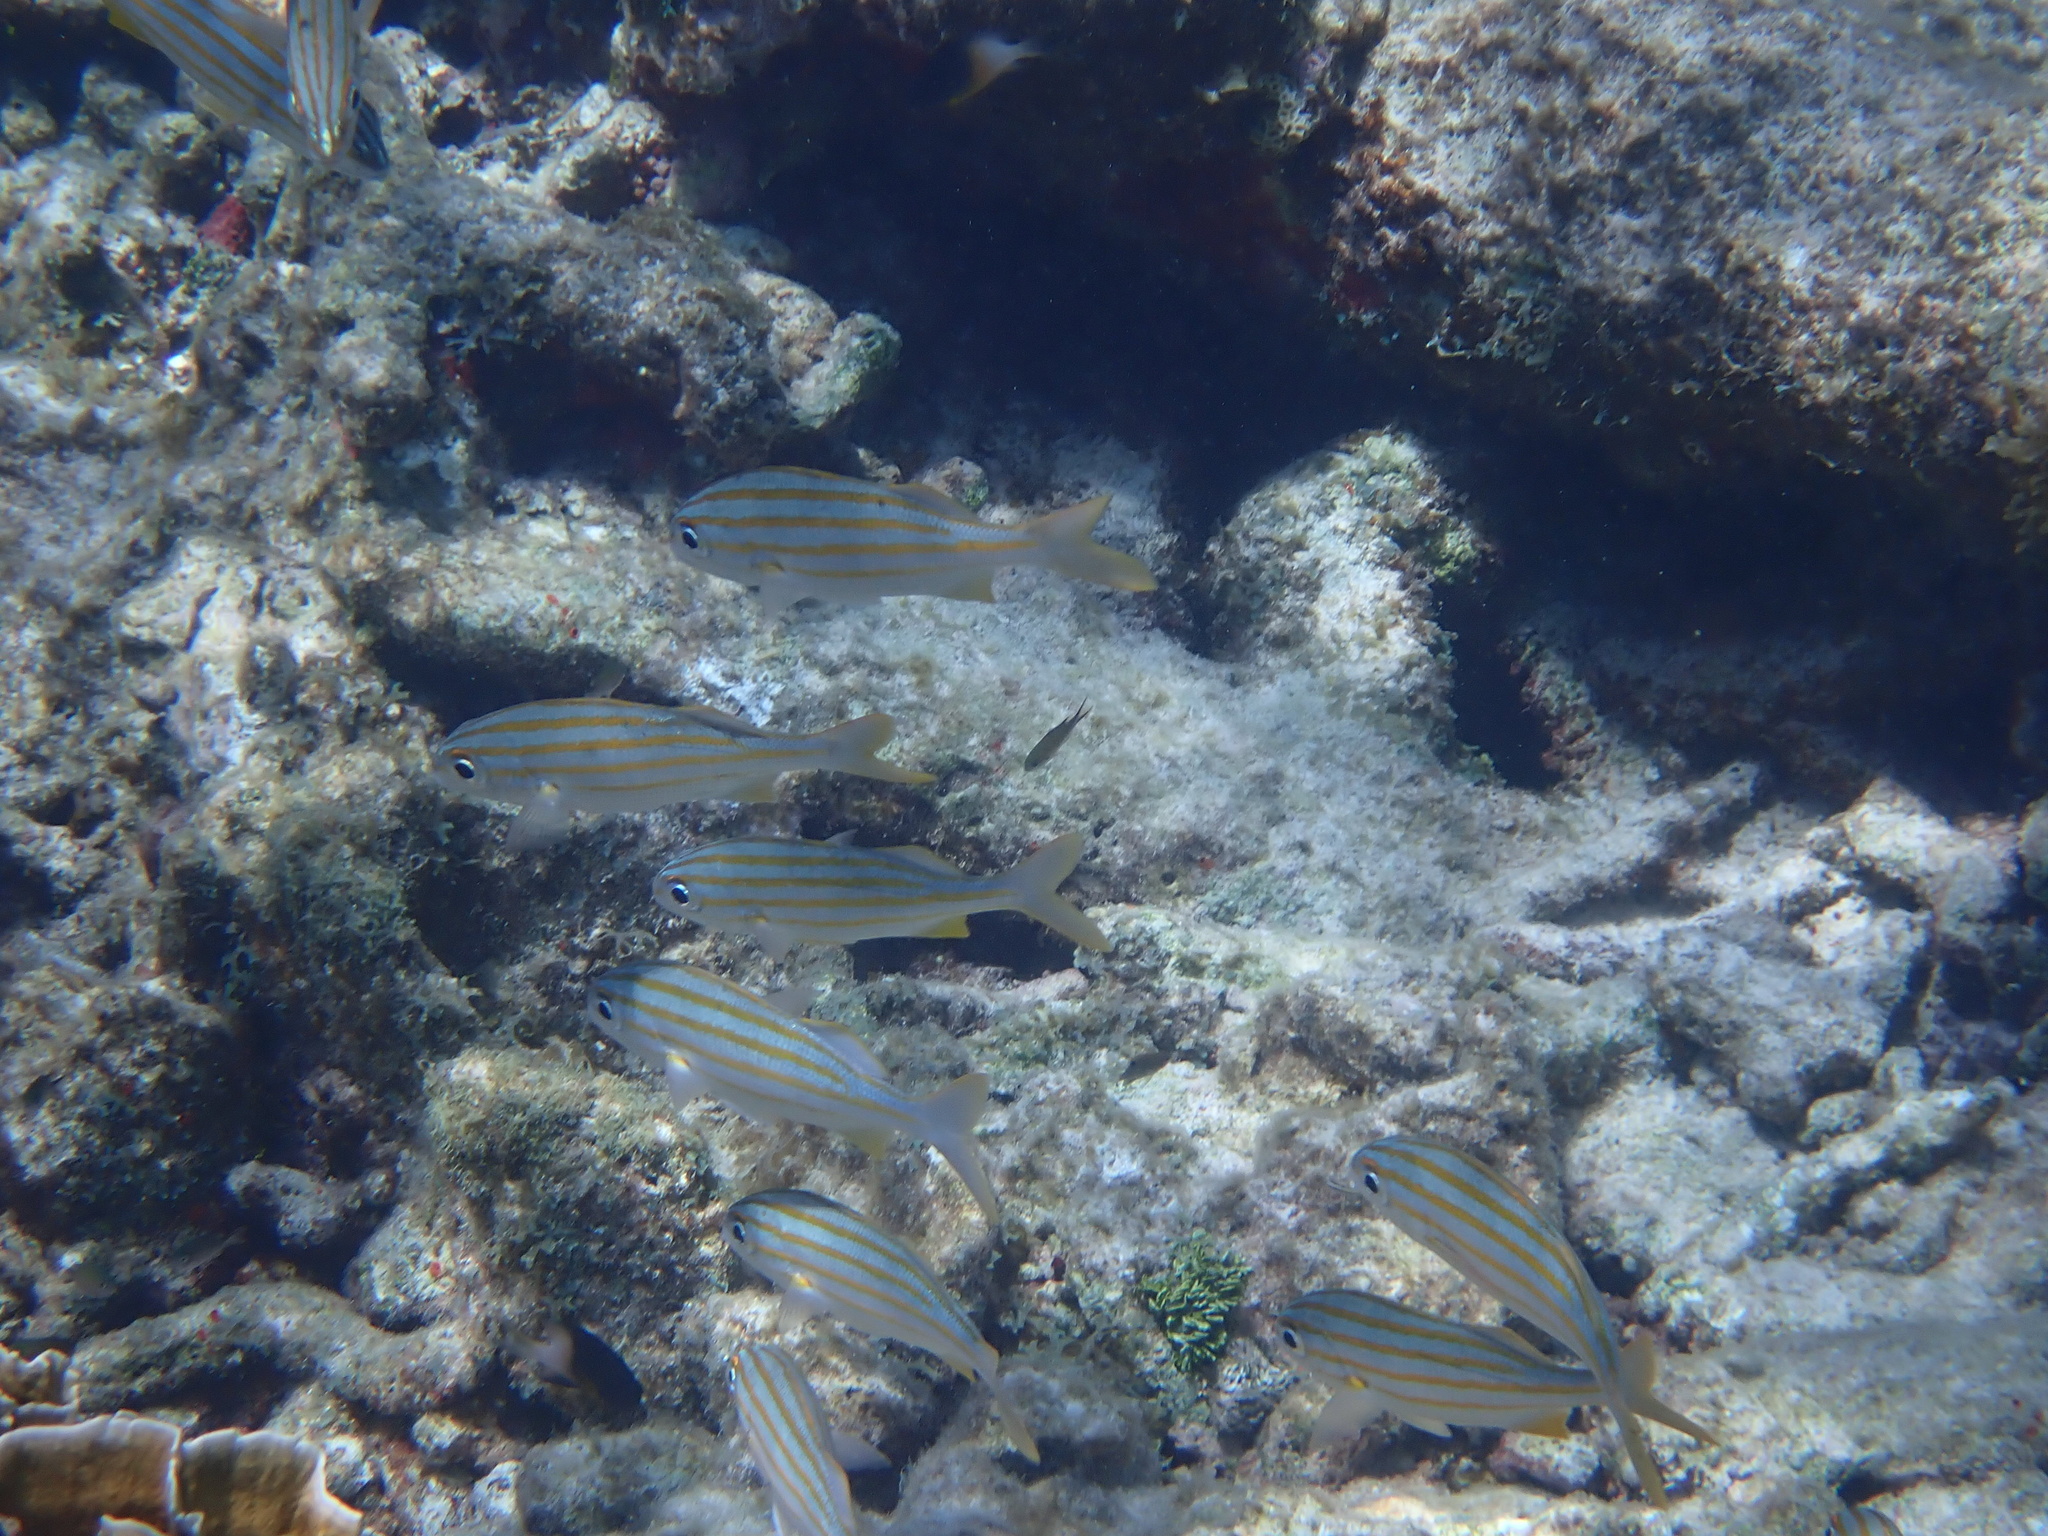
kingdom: Animalia
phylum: Chordata
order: Perciformes
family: Haemulidae
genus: Haemulon
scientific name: Haemulon chrysargyreum
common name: Smallmouth grunt
